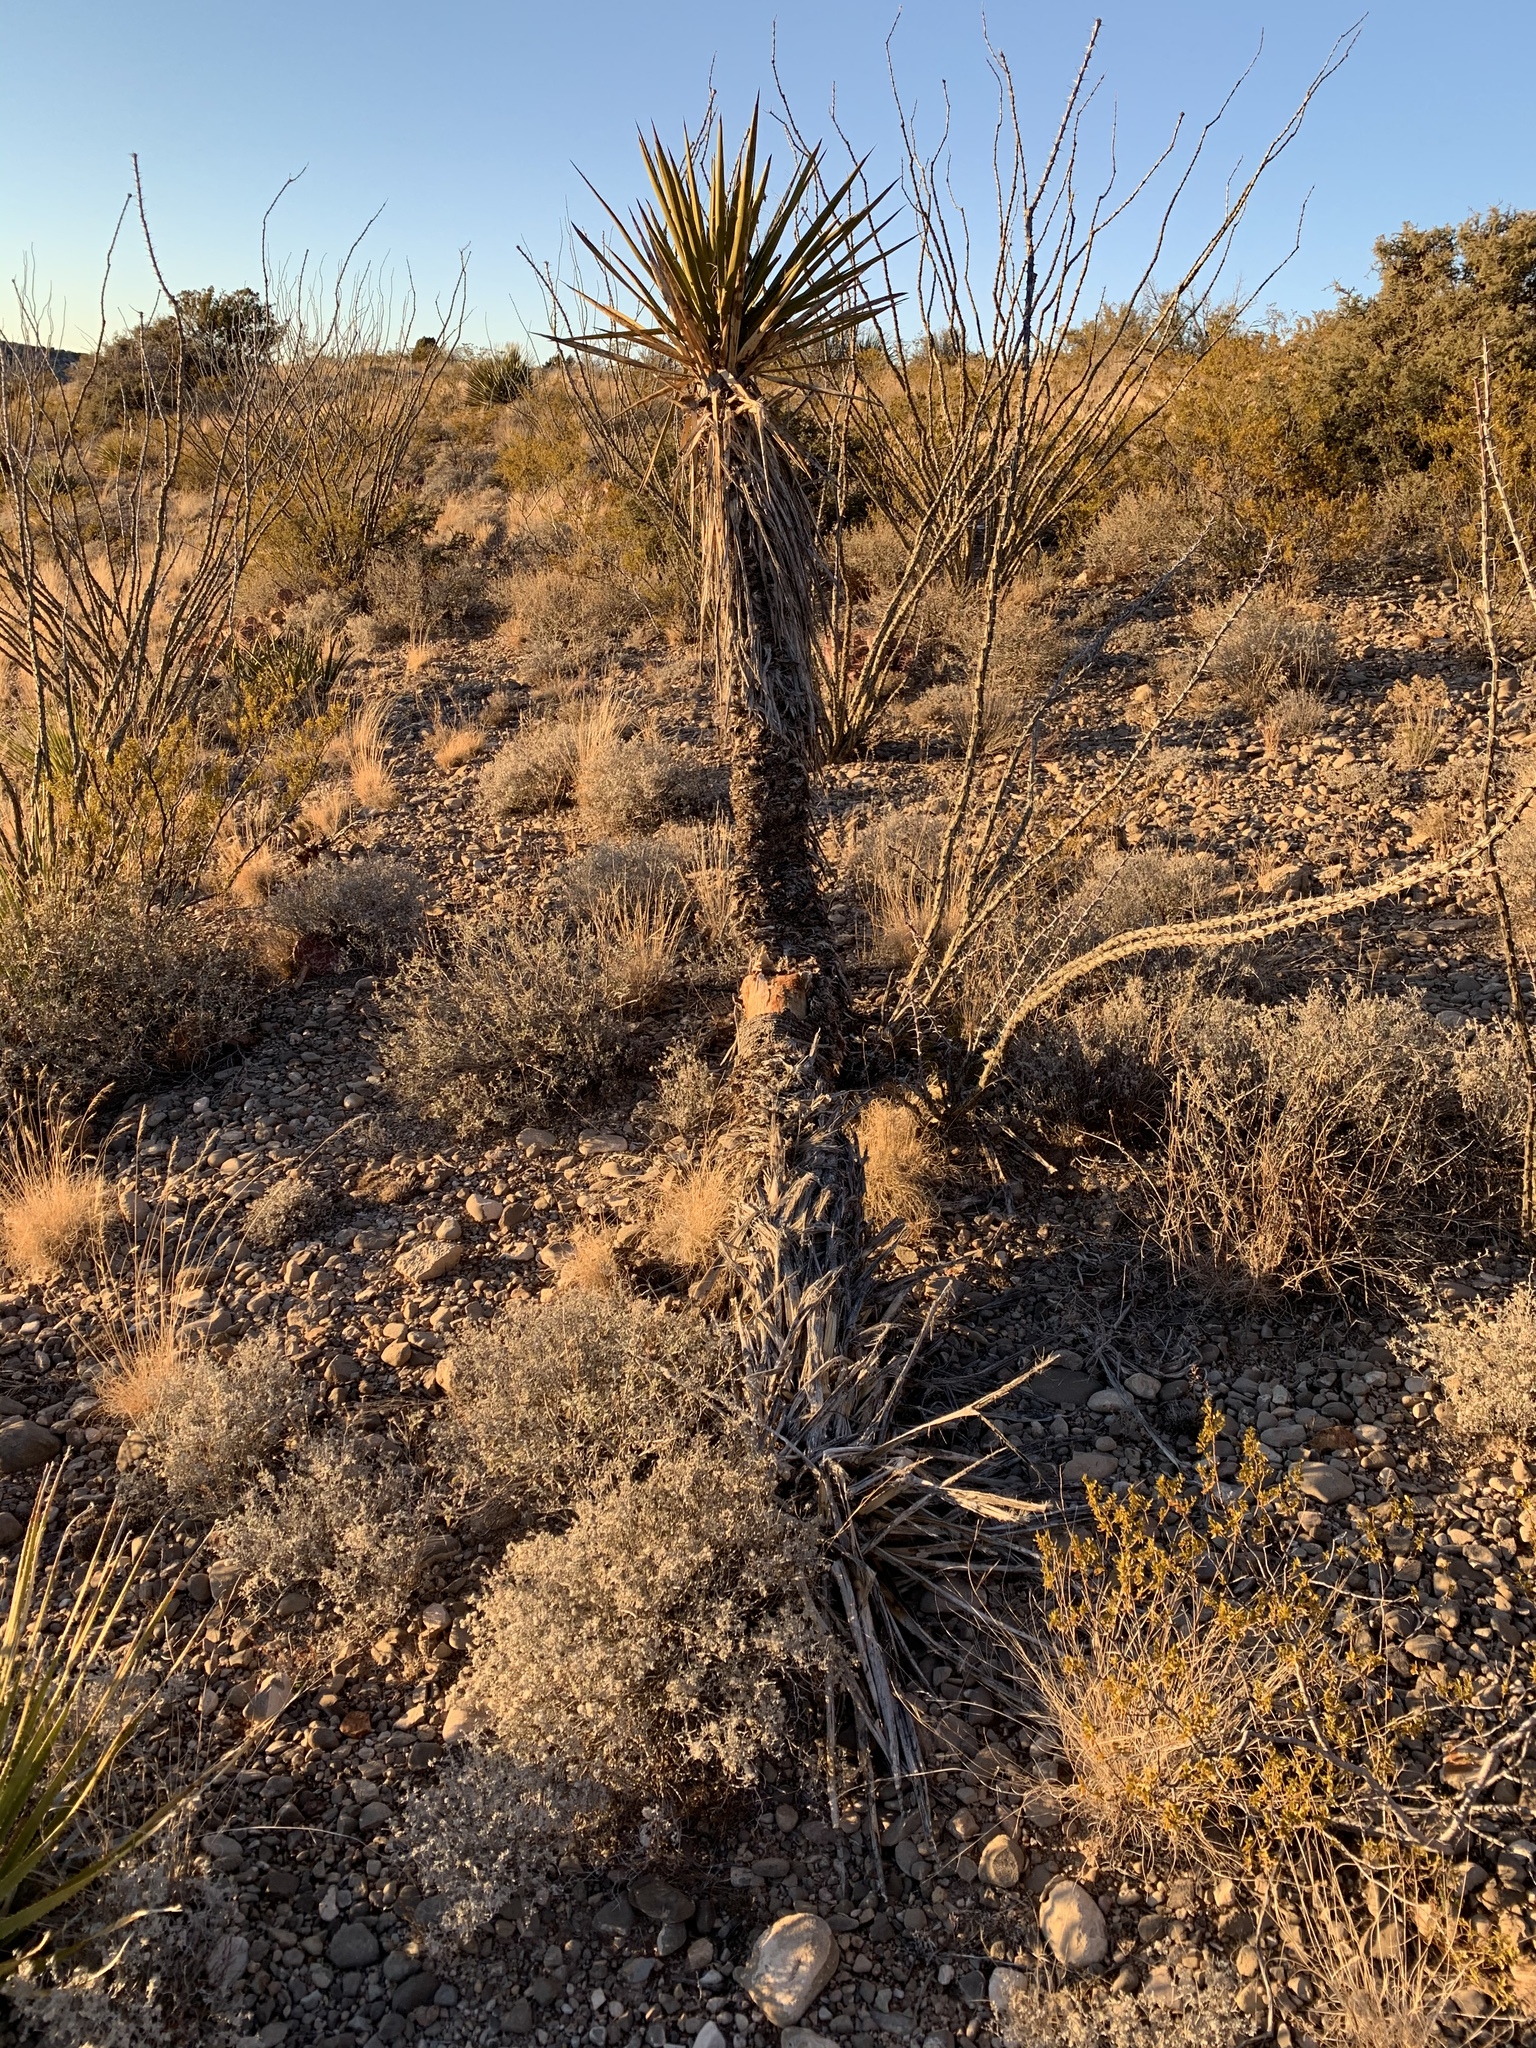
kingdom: Plantae
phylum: Tracheophyta
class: Liliopsida
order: Asparagales
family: Asparagaceae
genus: Yucca
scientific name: Yucca treculiana
